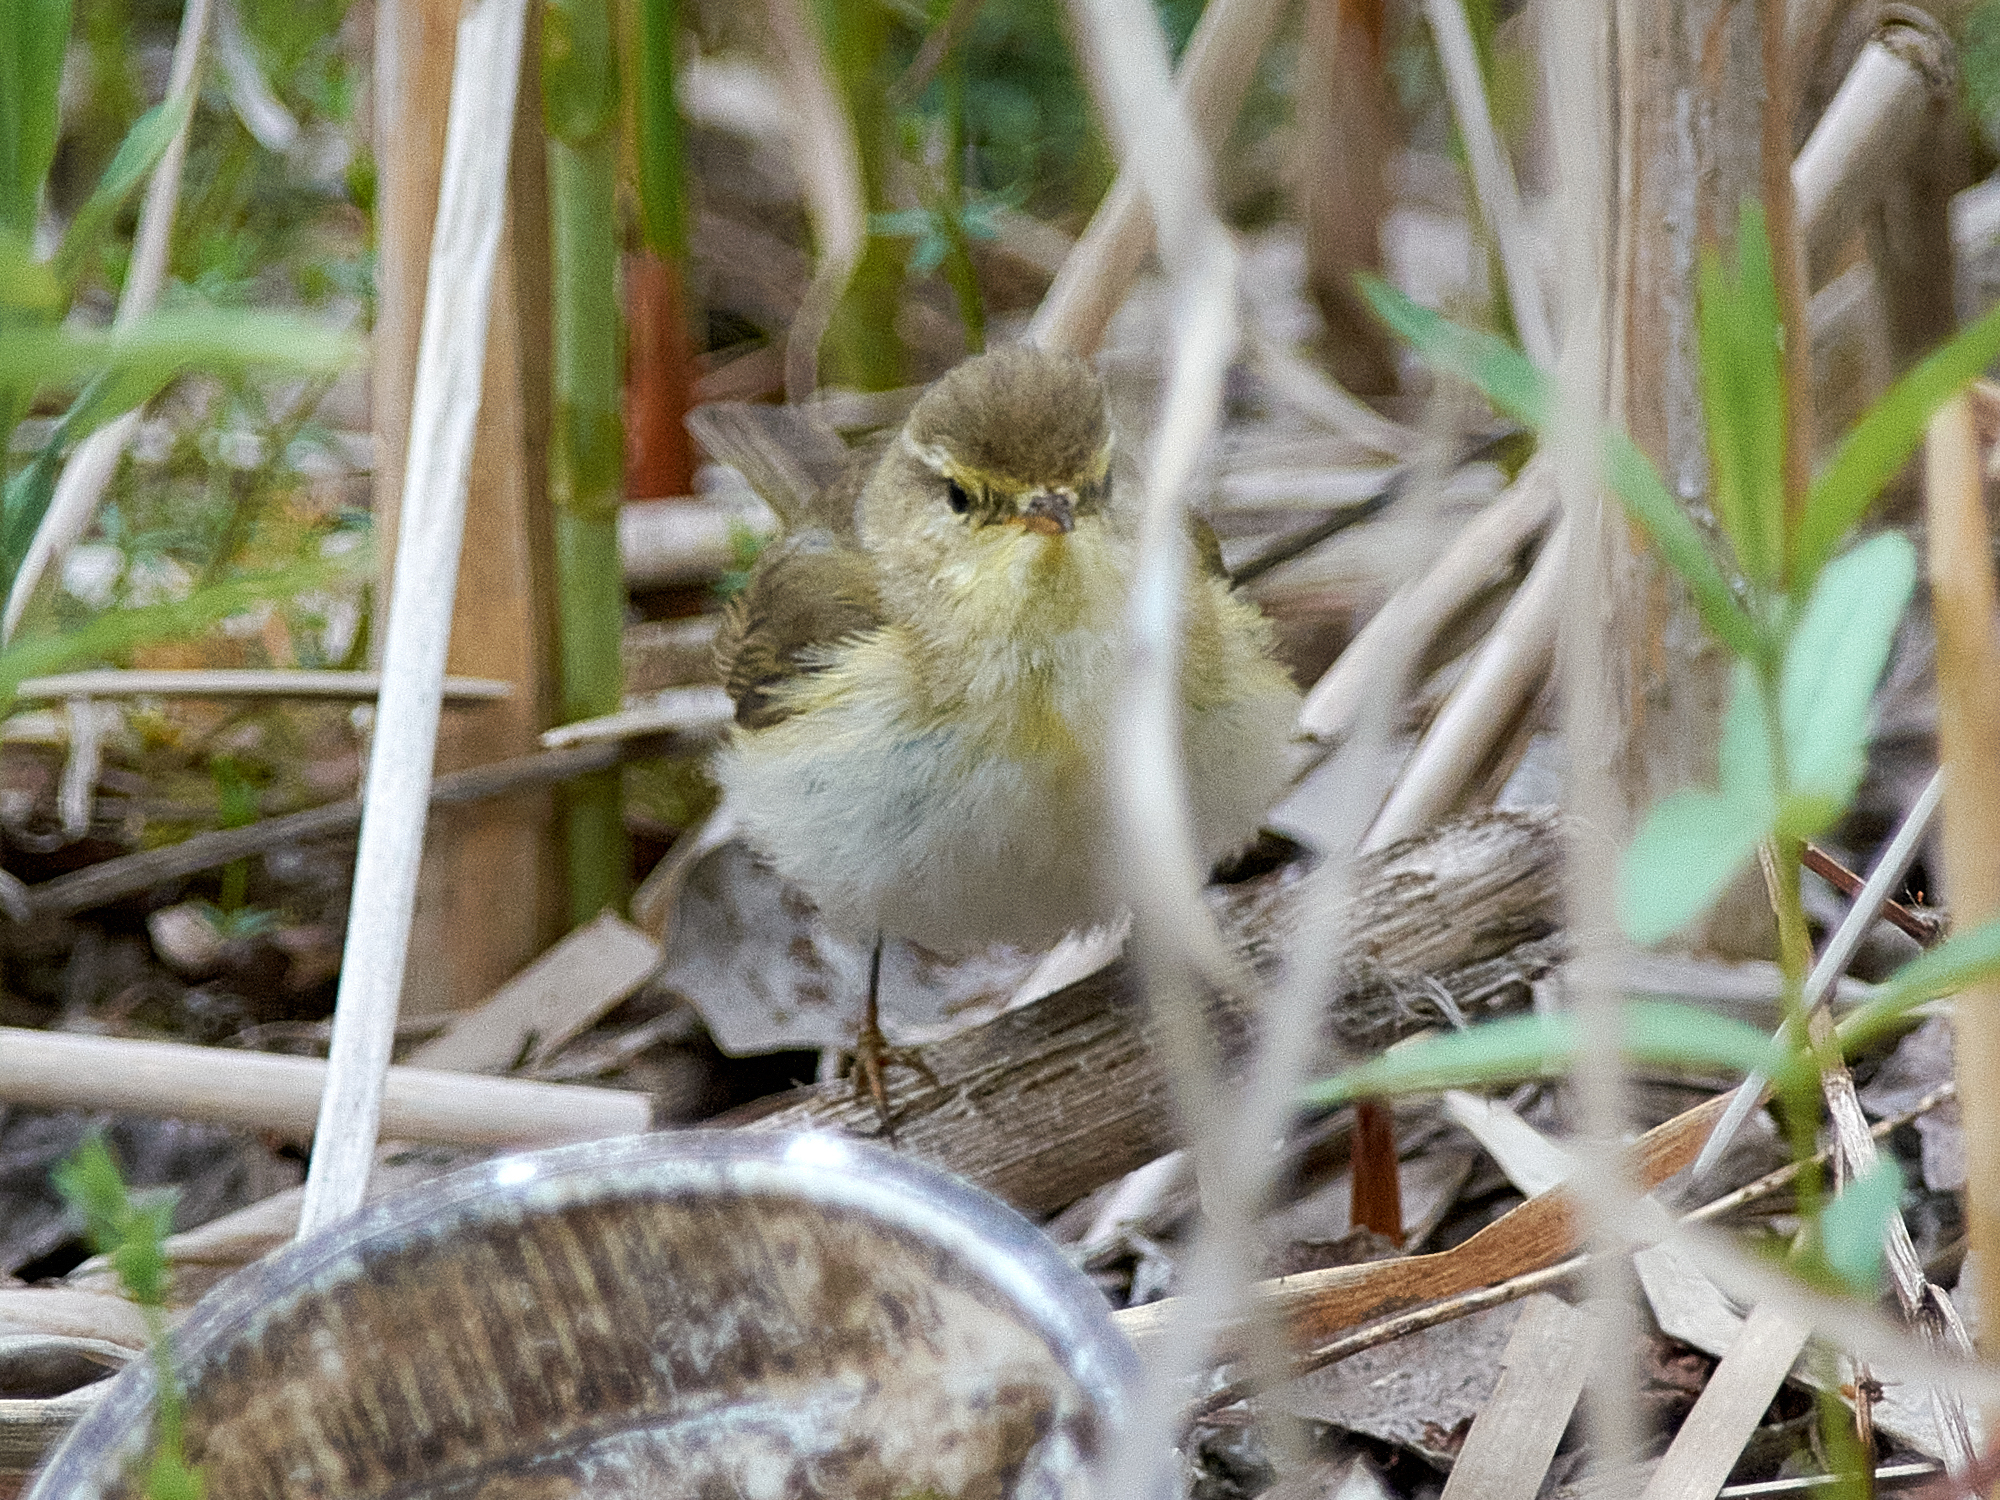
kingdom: Animalia
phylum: Chordata
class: Aves
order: Passeriformes
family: Phylloscopidae
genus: Phylloscopus
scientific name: Phylloscopus collybita
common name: Common chiffchaff
